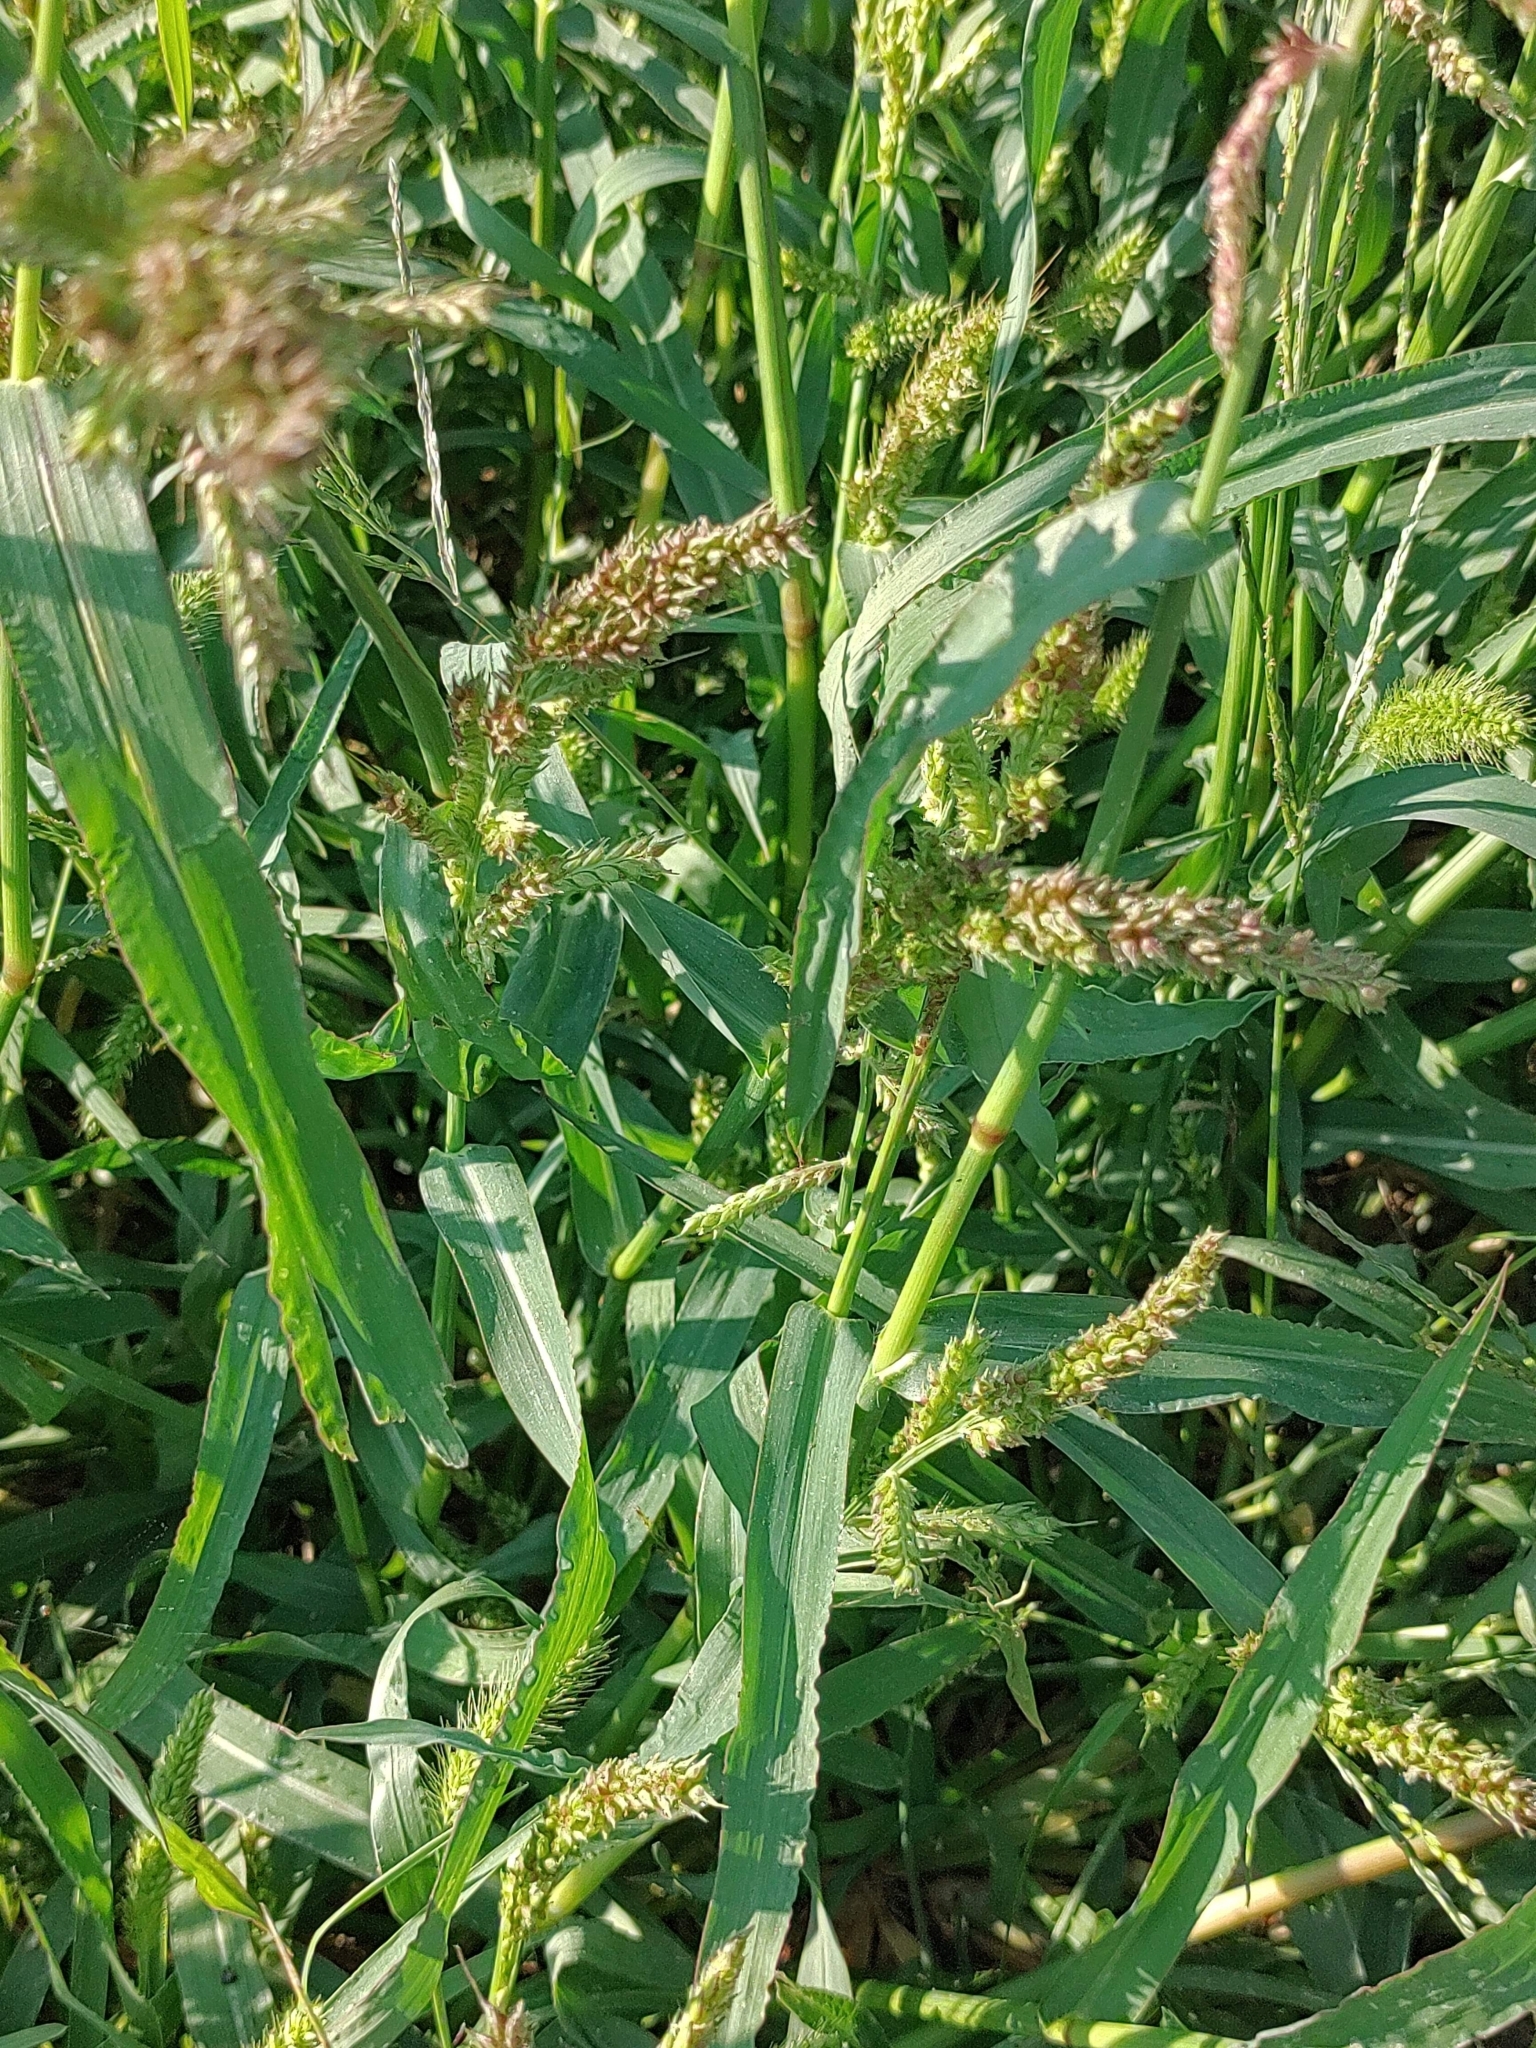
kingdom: Plantae
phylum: Tracheophyta
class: Liliopsida
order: Poales
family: Poaceae
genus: Echinochloa
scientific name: Echinochloa crus-galli
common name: Cockspur
